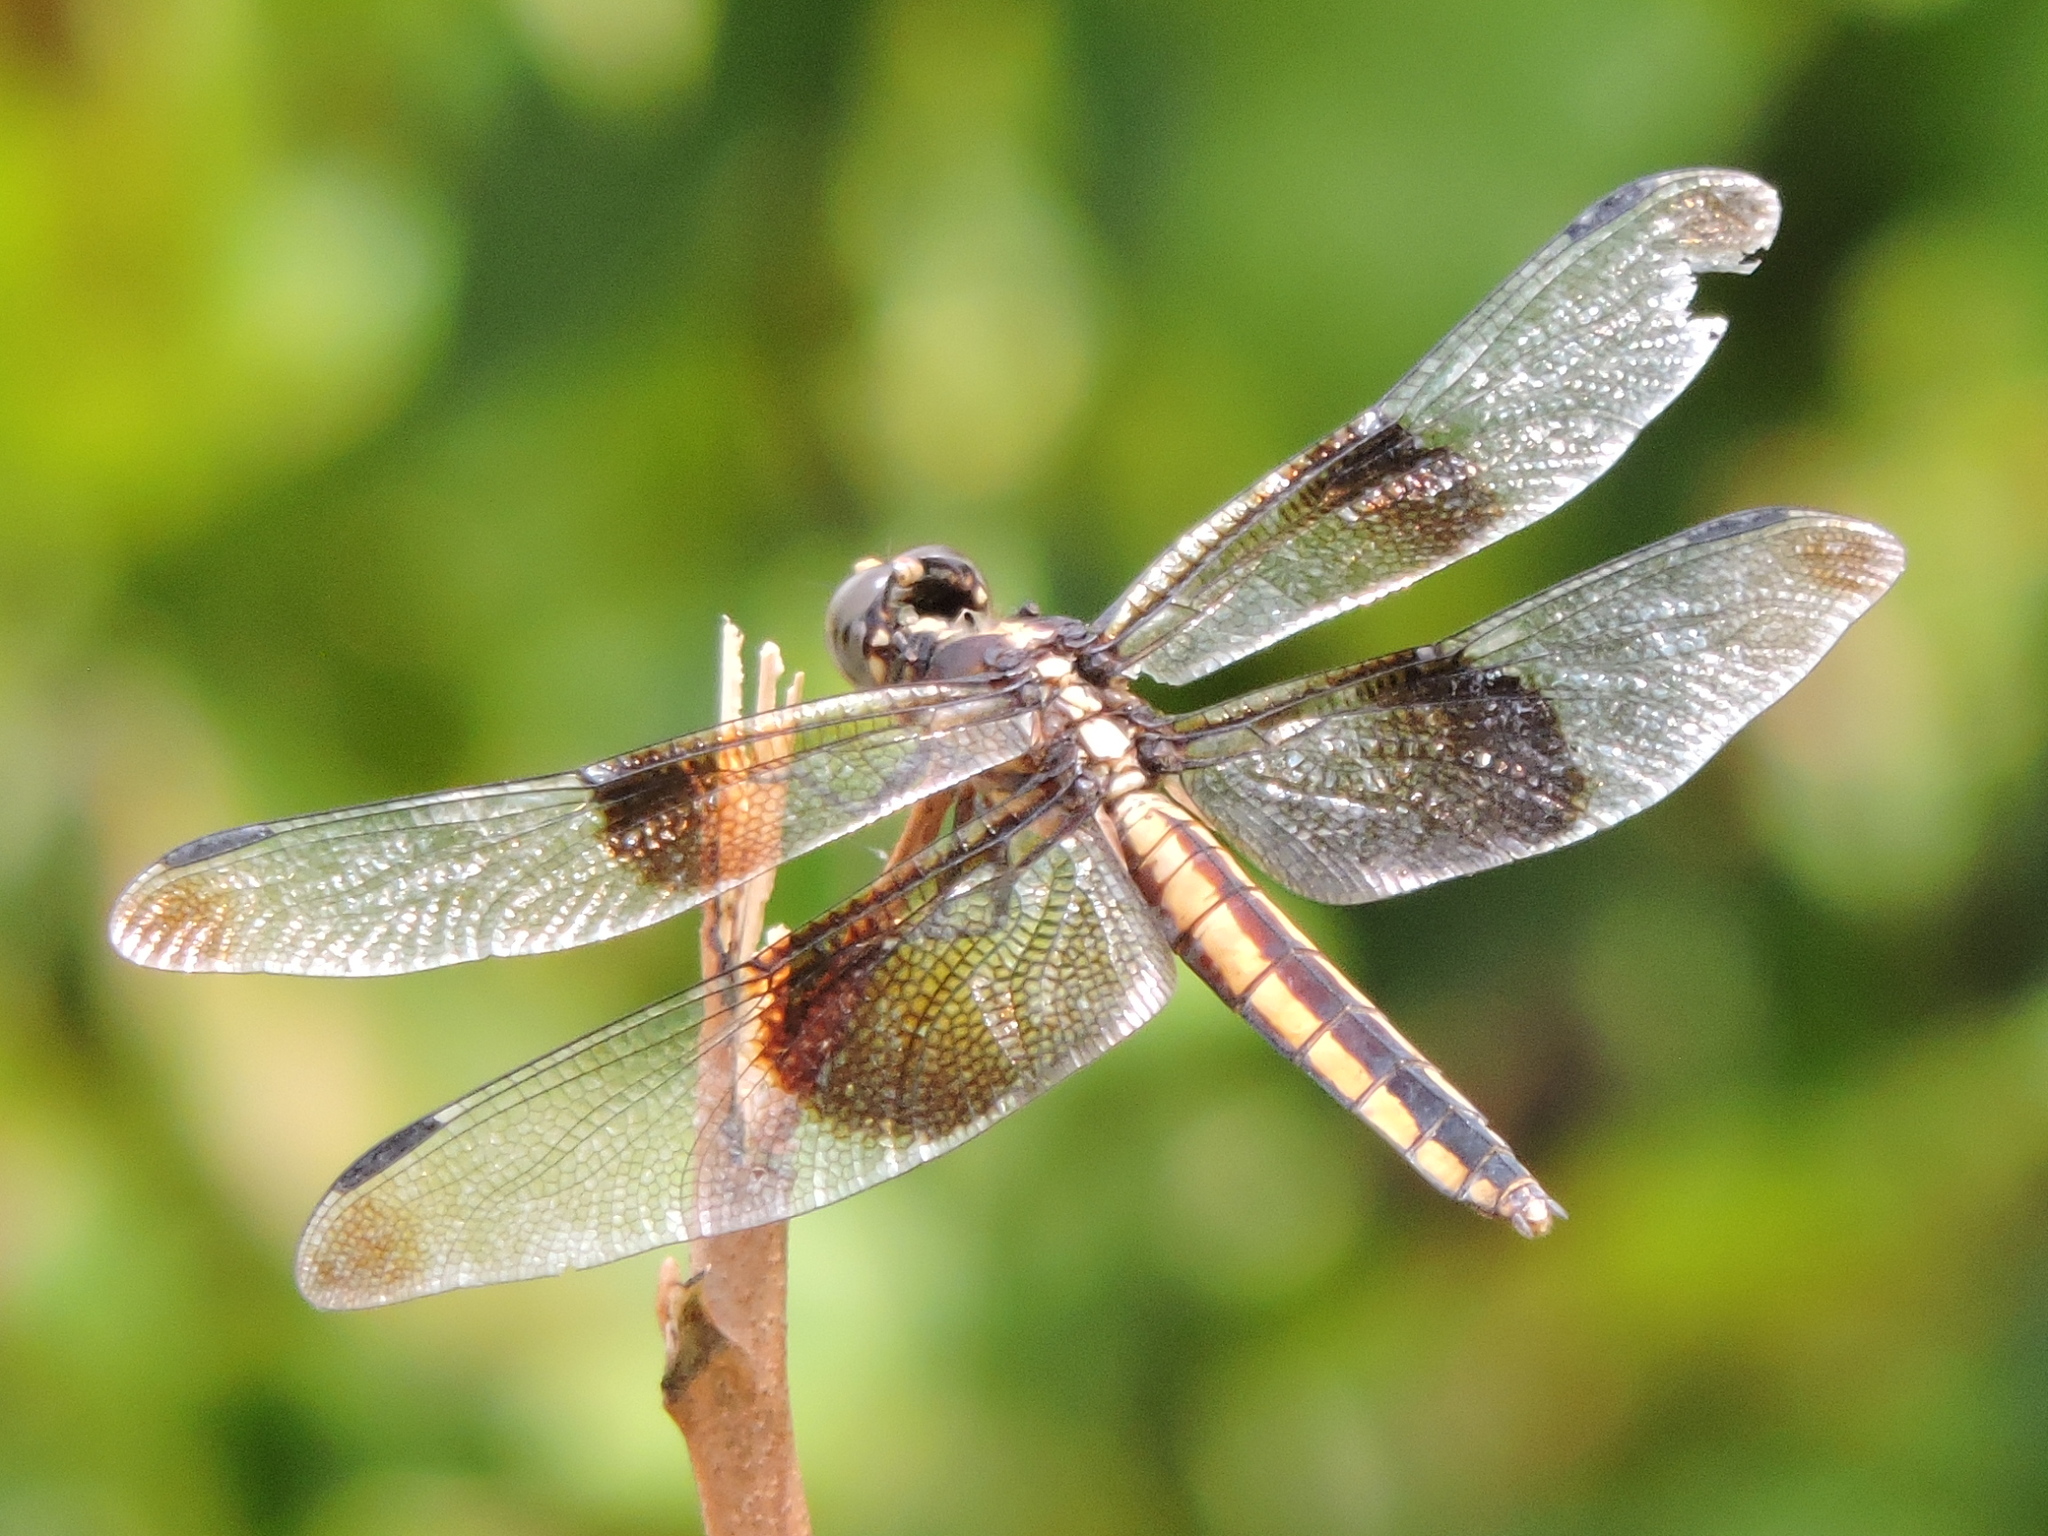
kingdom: Animalia
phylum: Arthropoda
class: Insecta
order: Odonata
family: Libellulidae
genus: Libellula
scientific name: Libellula luctuosa
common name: Widow skimmer
